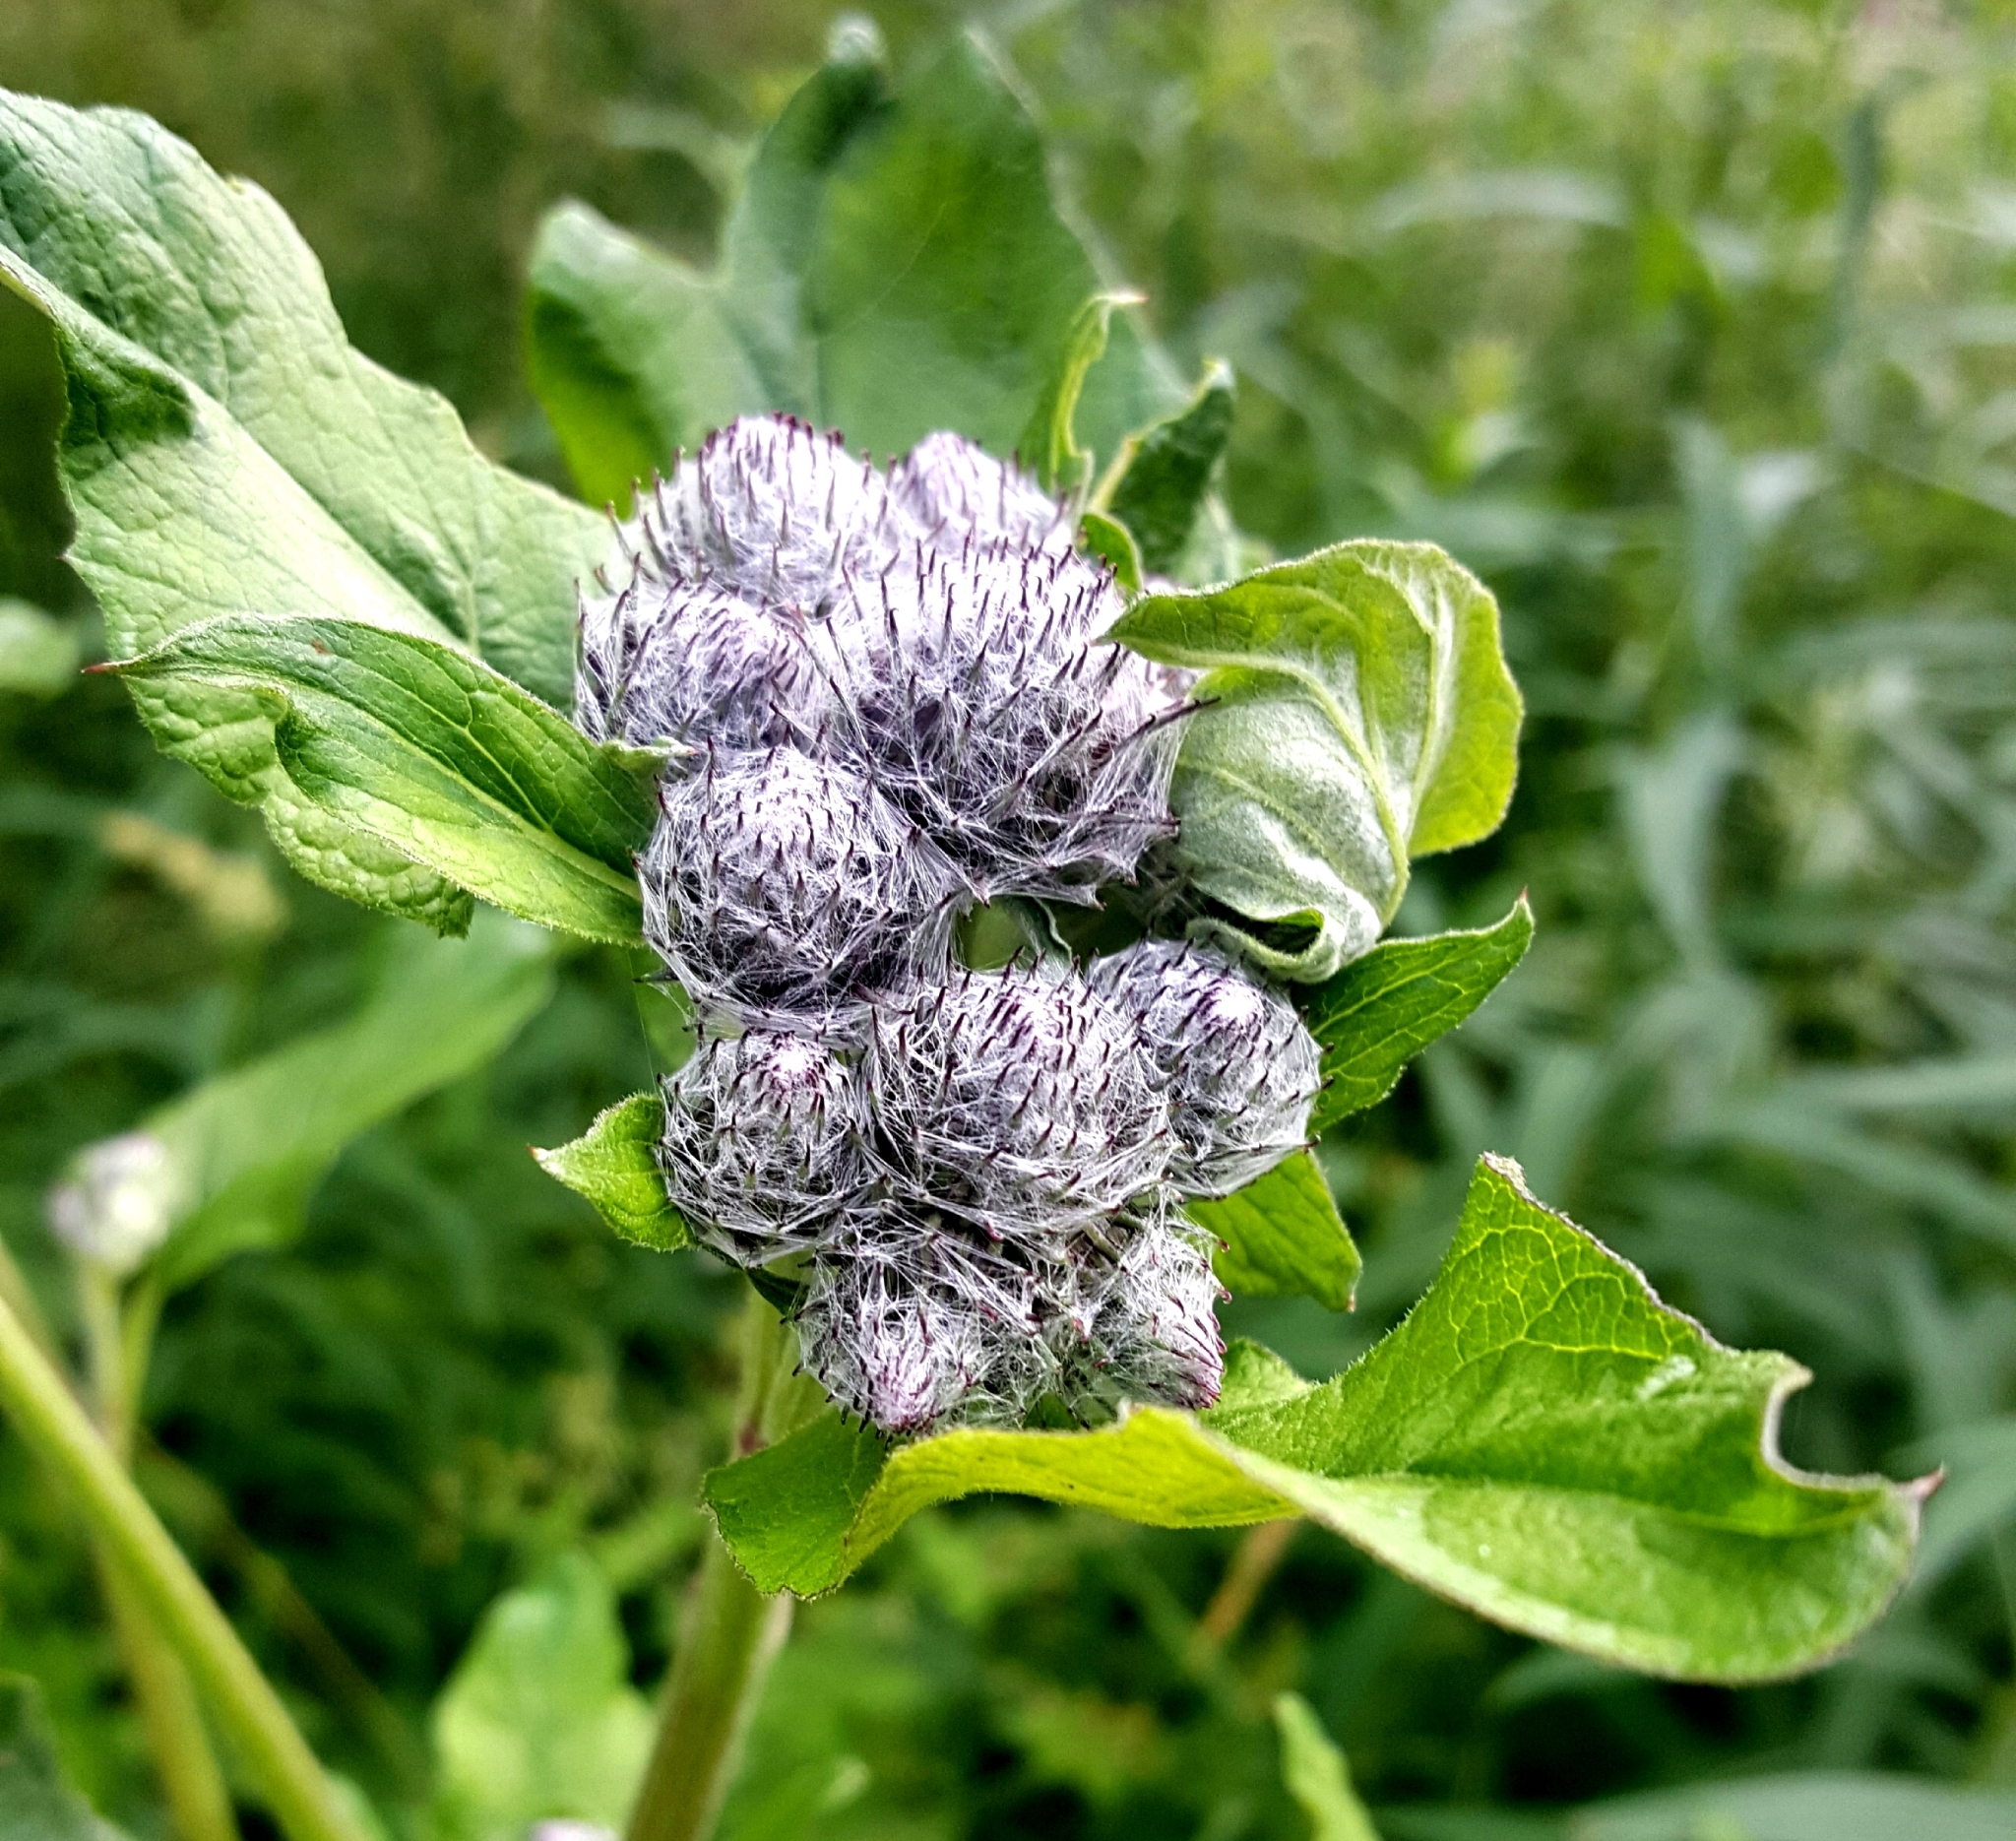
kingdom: Plantae
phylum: Tracheophyta
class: Magnoliopsida
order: Asterales
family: Asteraceae
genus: Arctium
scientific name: Arctium tomentosum
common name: Woolly burdock
